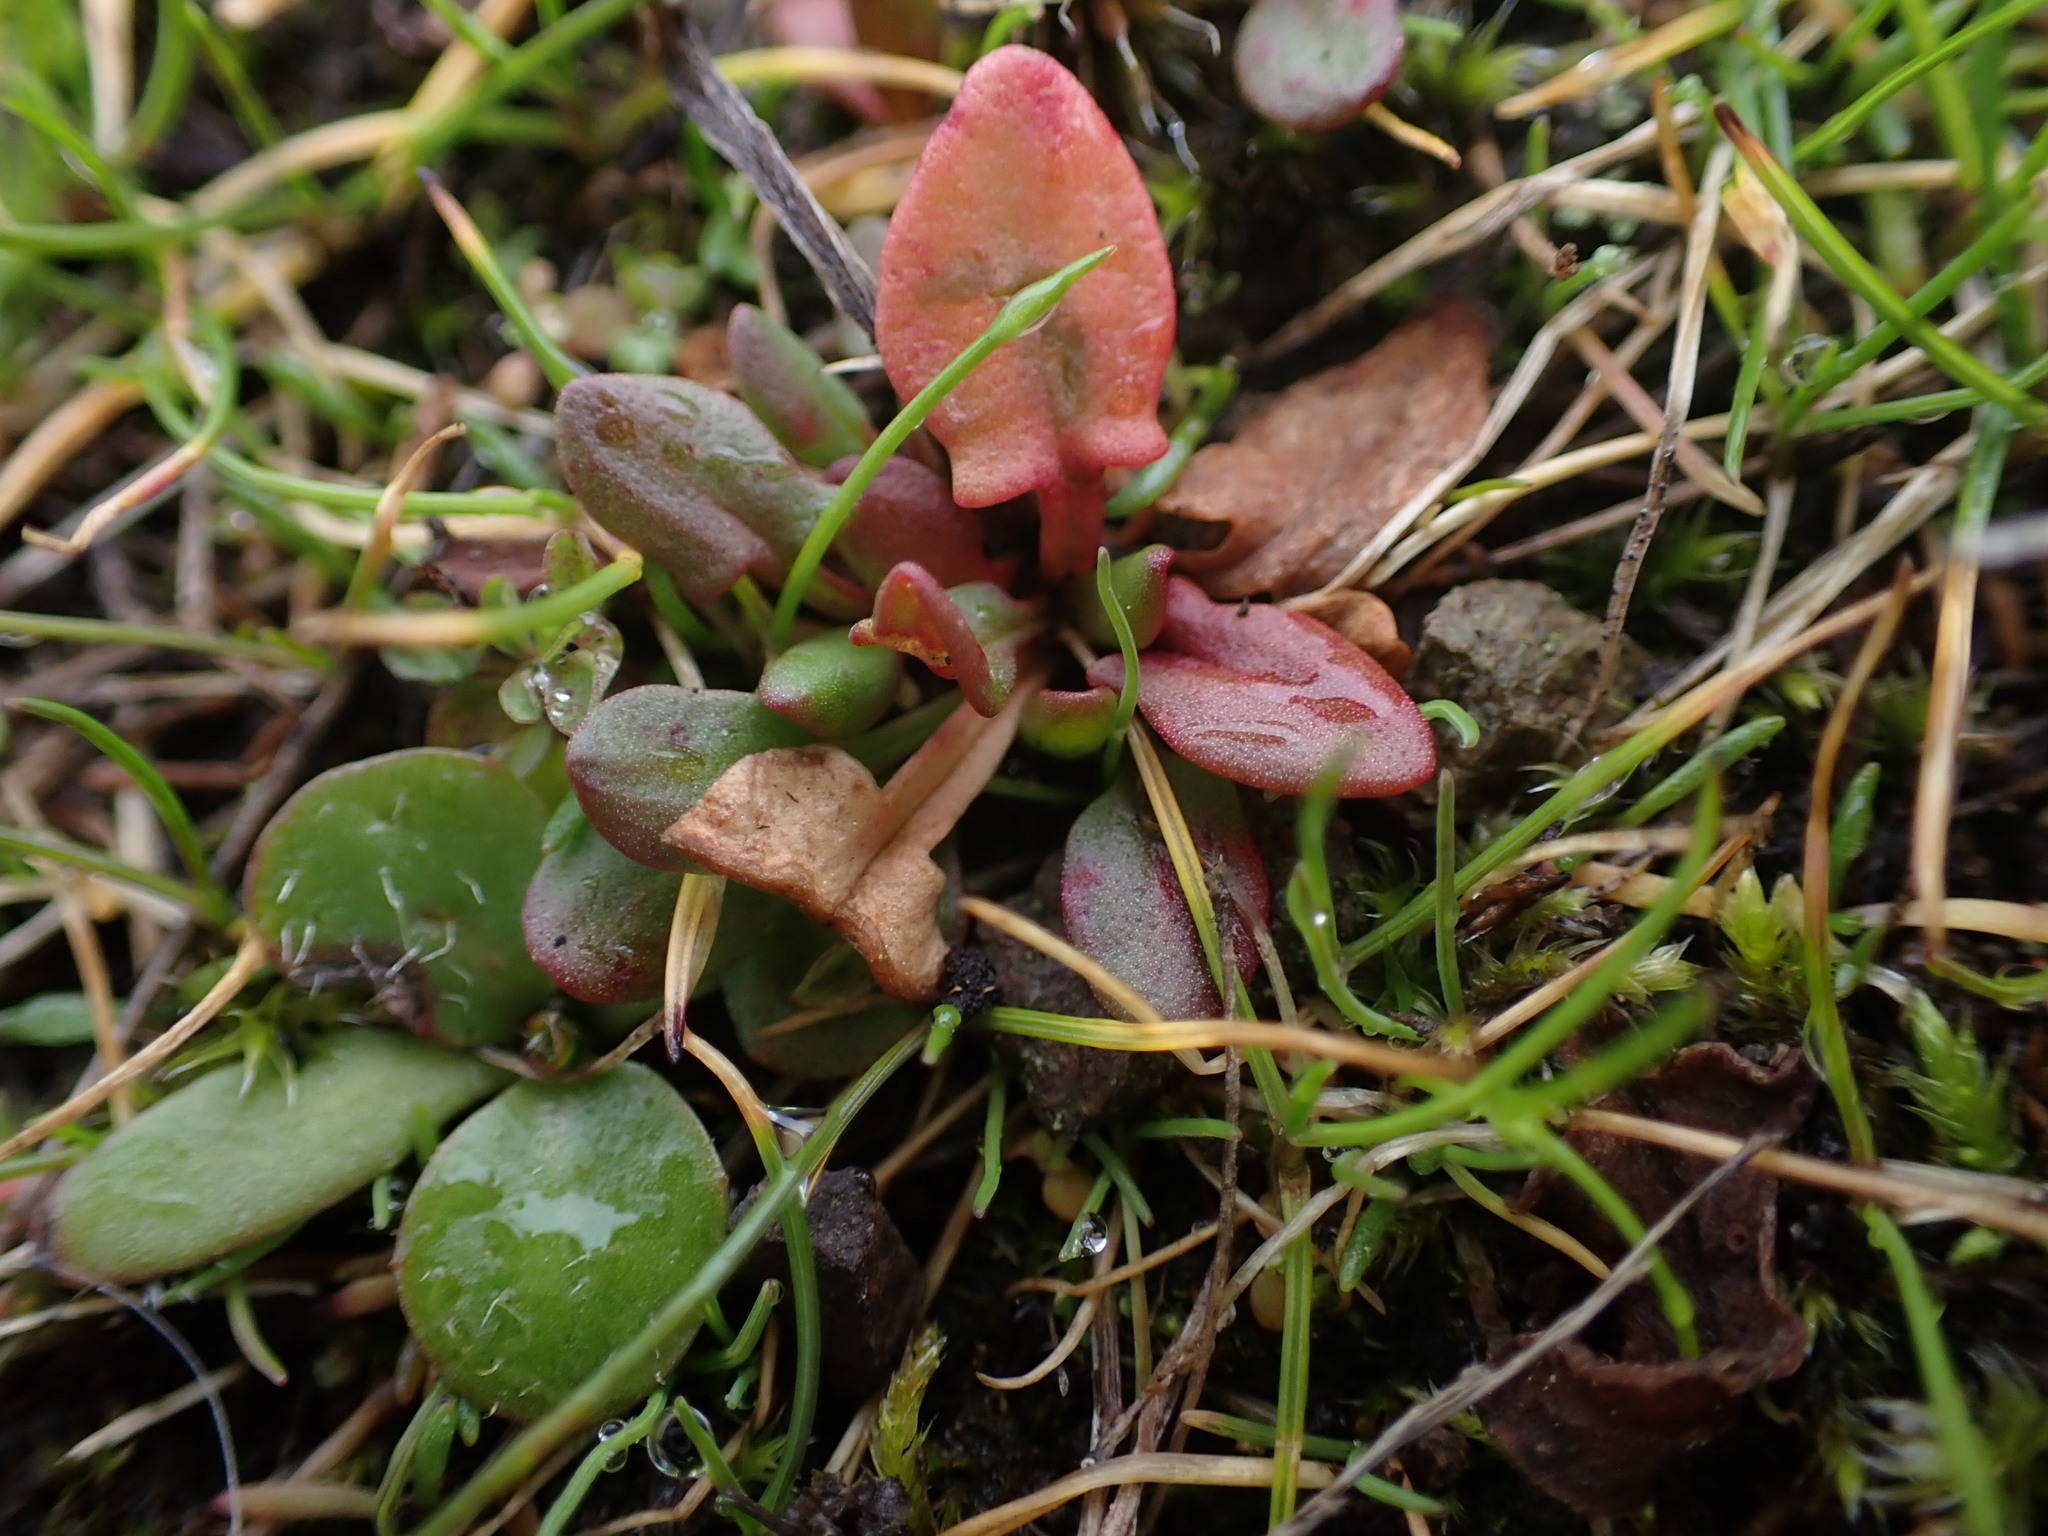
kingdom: Plantae
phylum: Tracheophyta
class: Magnoliopsida
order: Caryophyllales
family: Polygonaceae
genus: Rumex
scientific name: Rumex acetosella
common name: Common sheep sorrel
